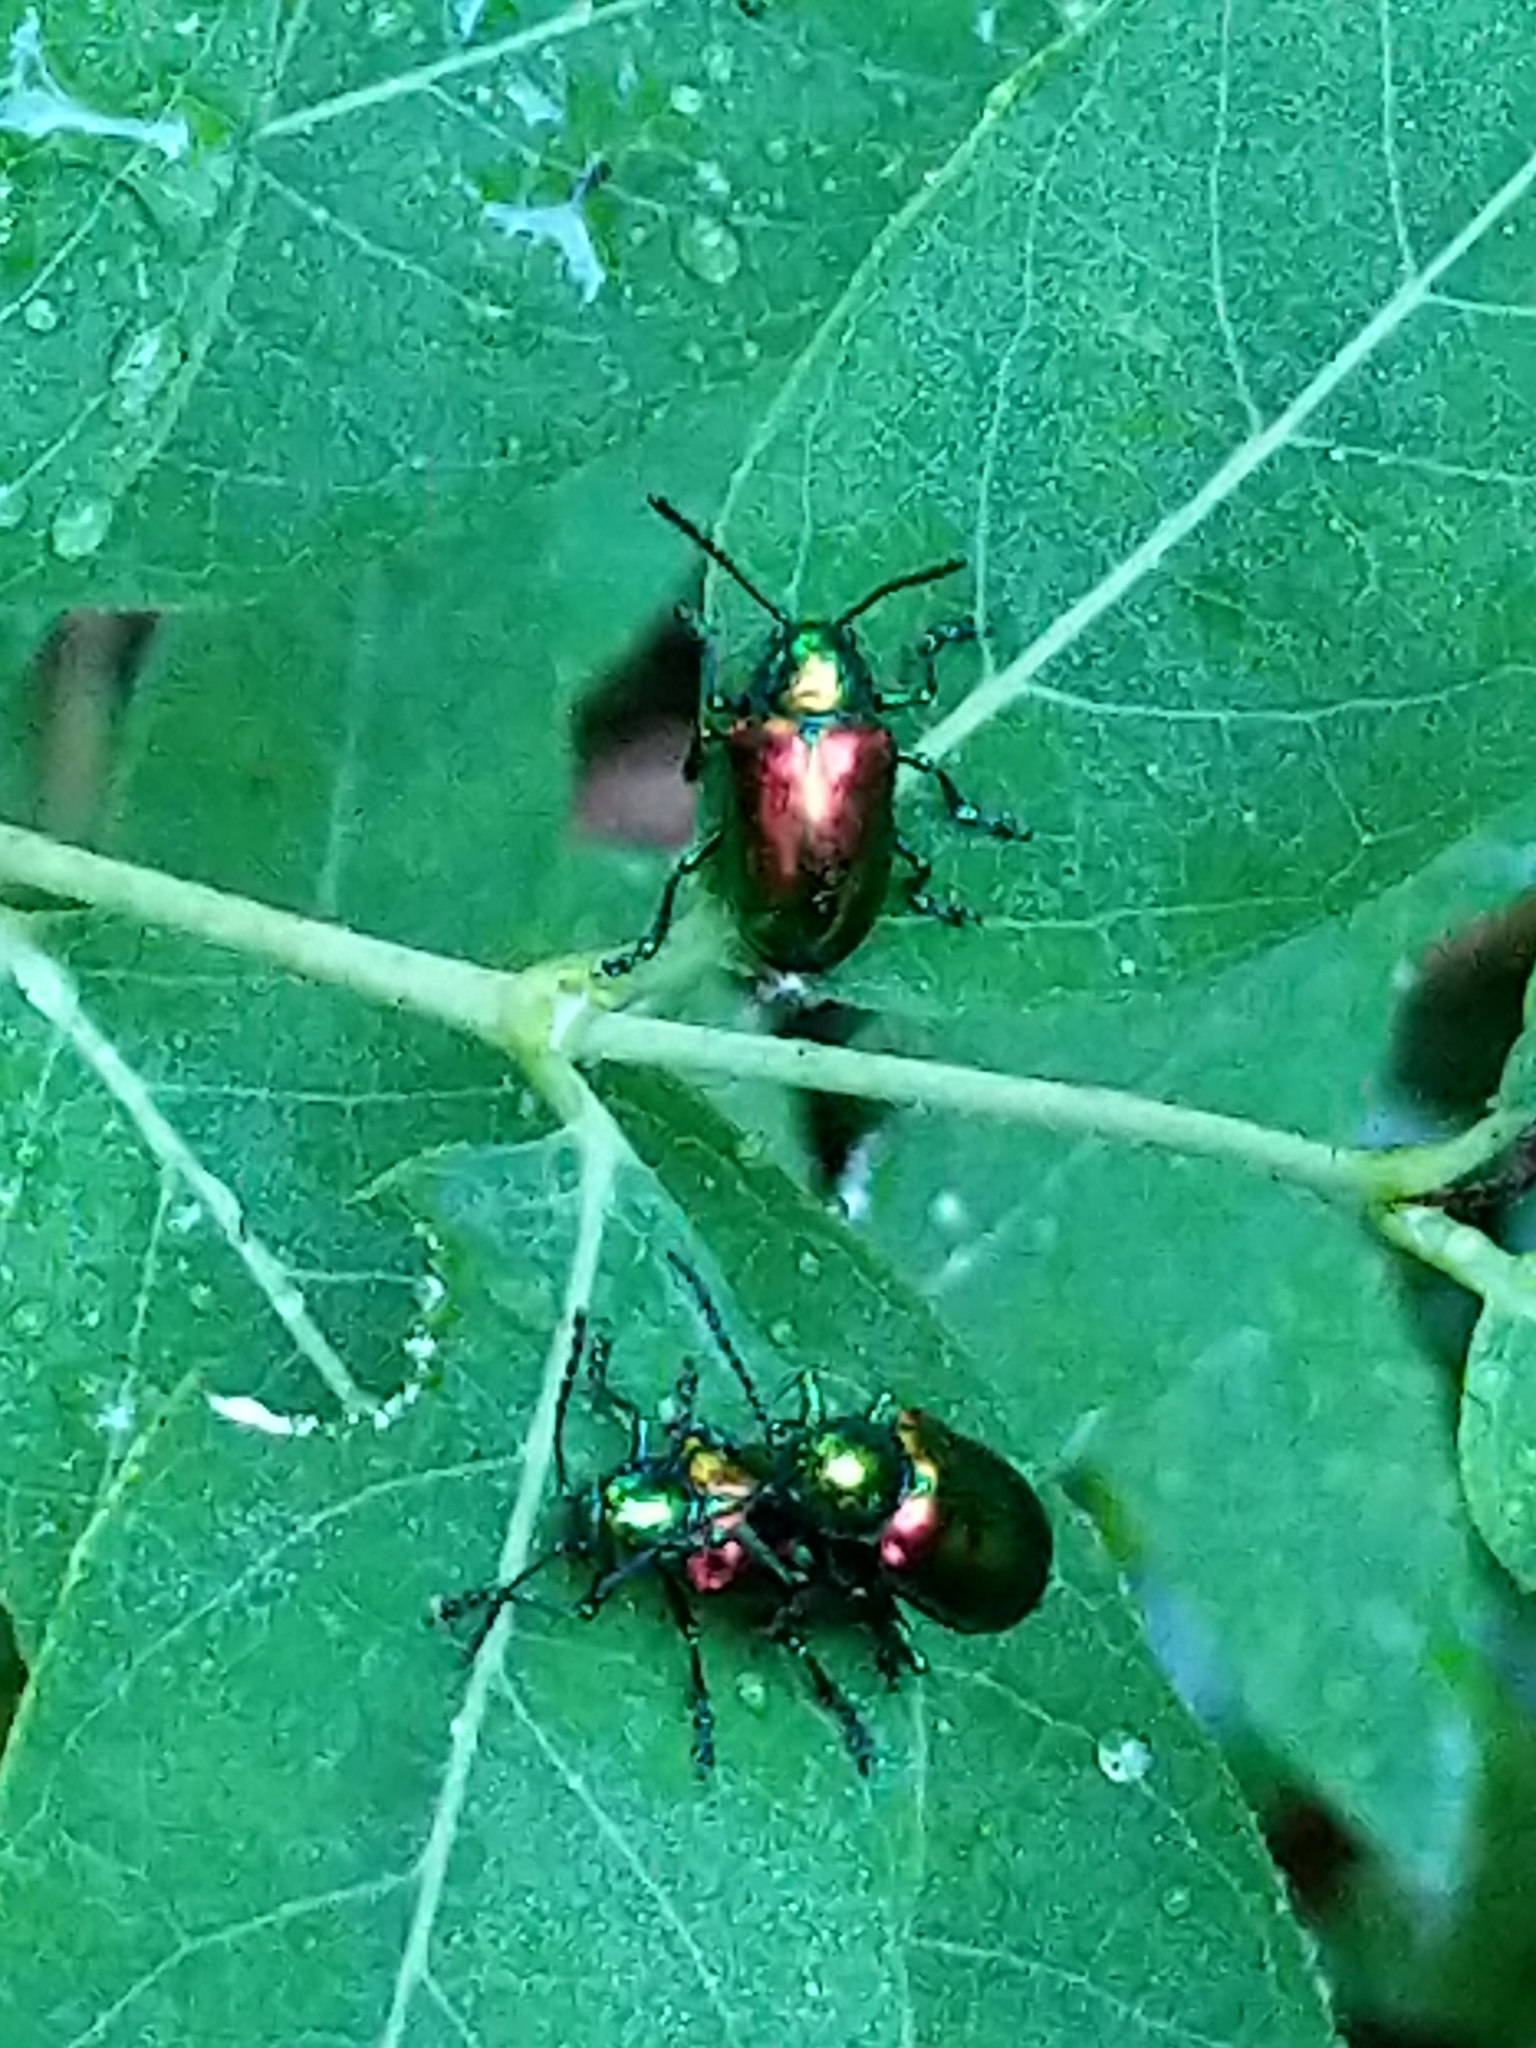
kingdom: Animalia
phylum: Arthropoda
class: Insecta
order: Coleoptera
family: Chrysomelidae
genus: Chrysochus
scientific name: Chrysochus auratus
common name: Dogbane leaf beetle
